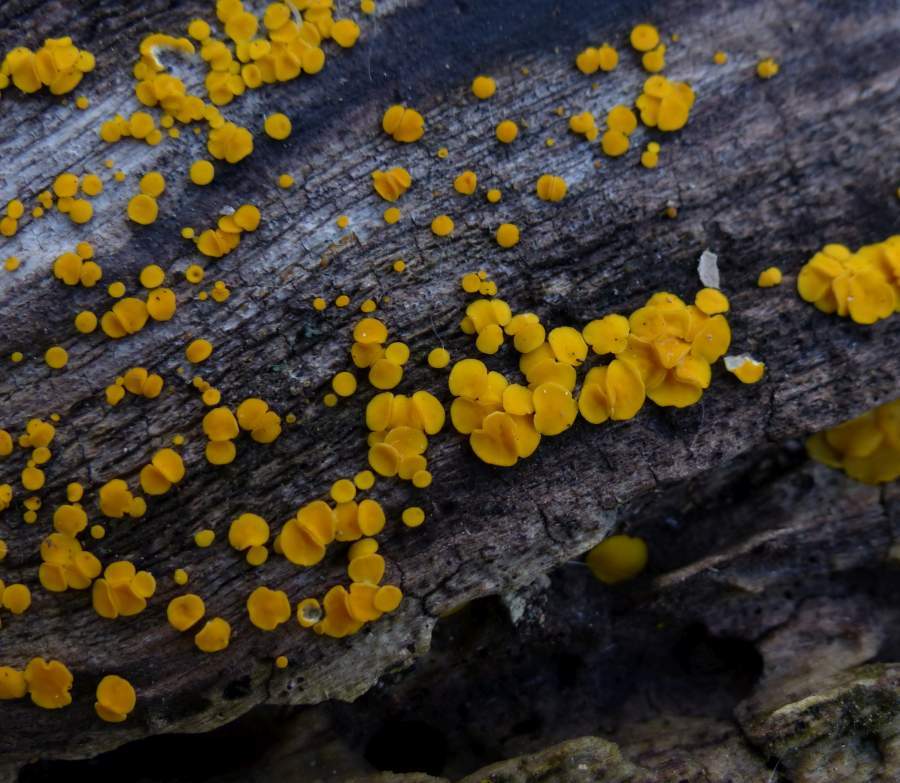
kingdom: Fungi
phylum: Ascomycota
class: Leotiomycetes
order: Helotiales
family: Pezizellaceae
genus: Calycina
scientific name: Calycina citrina
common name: Yellow fairy cups
